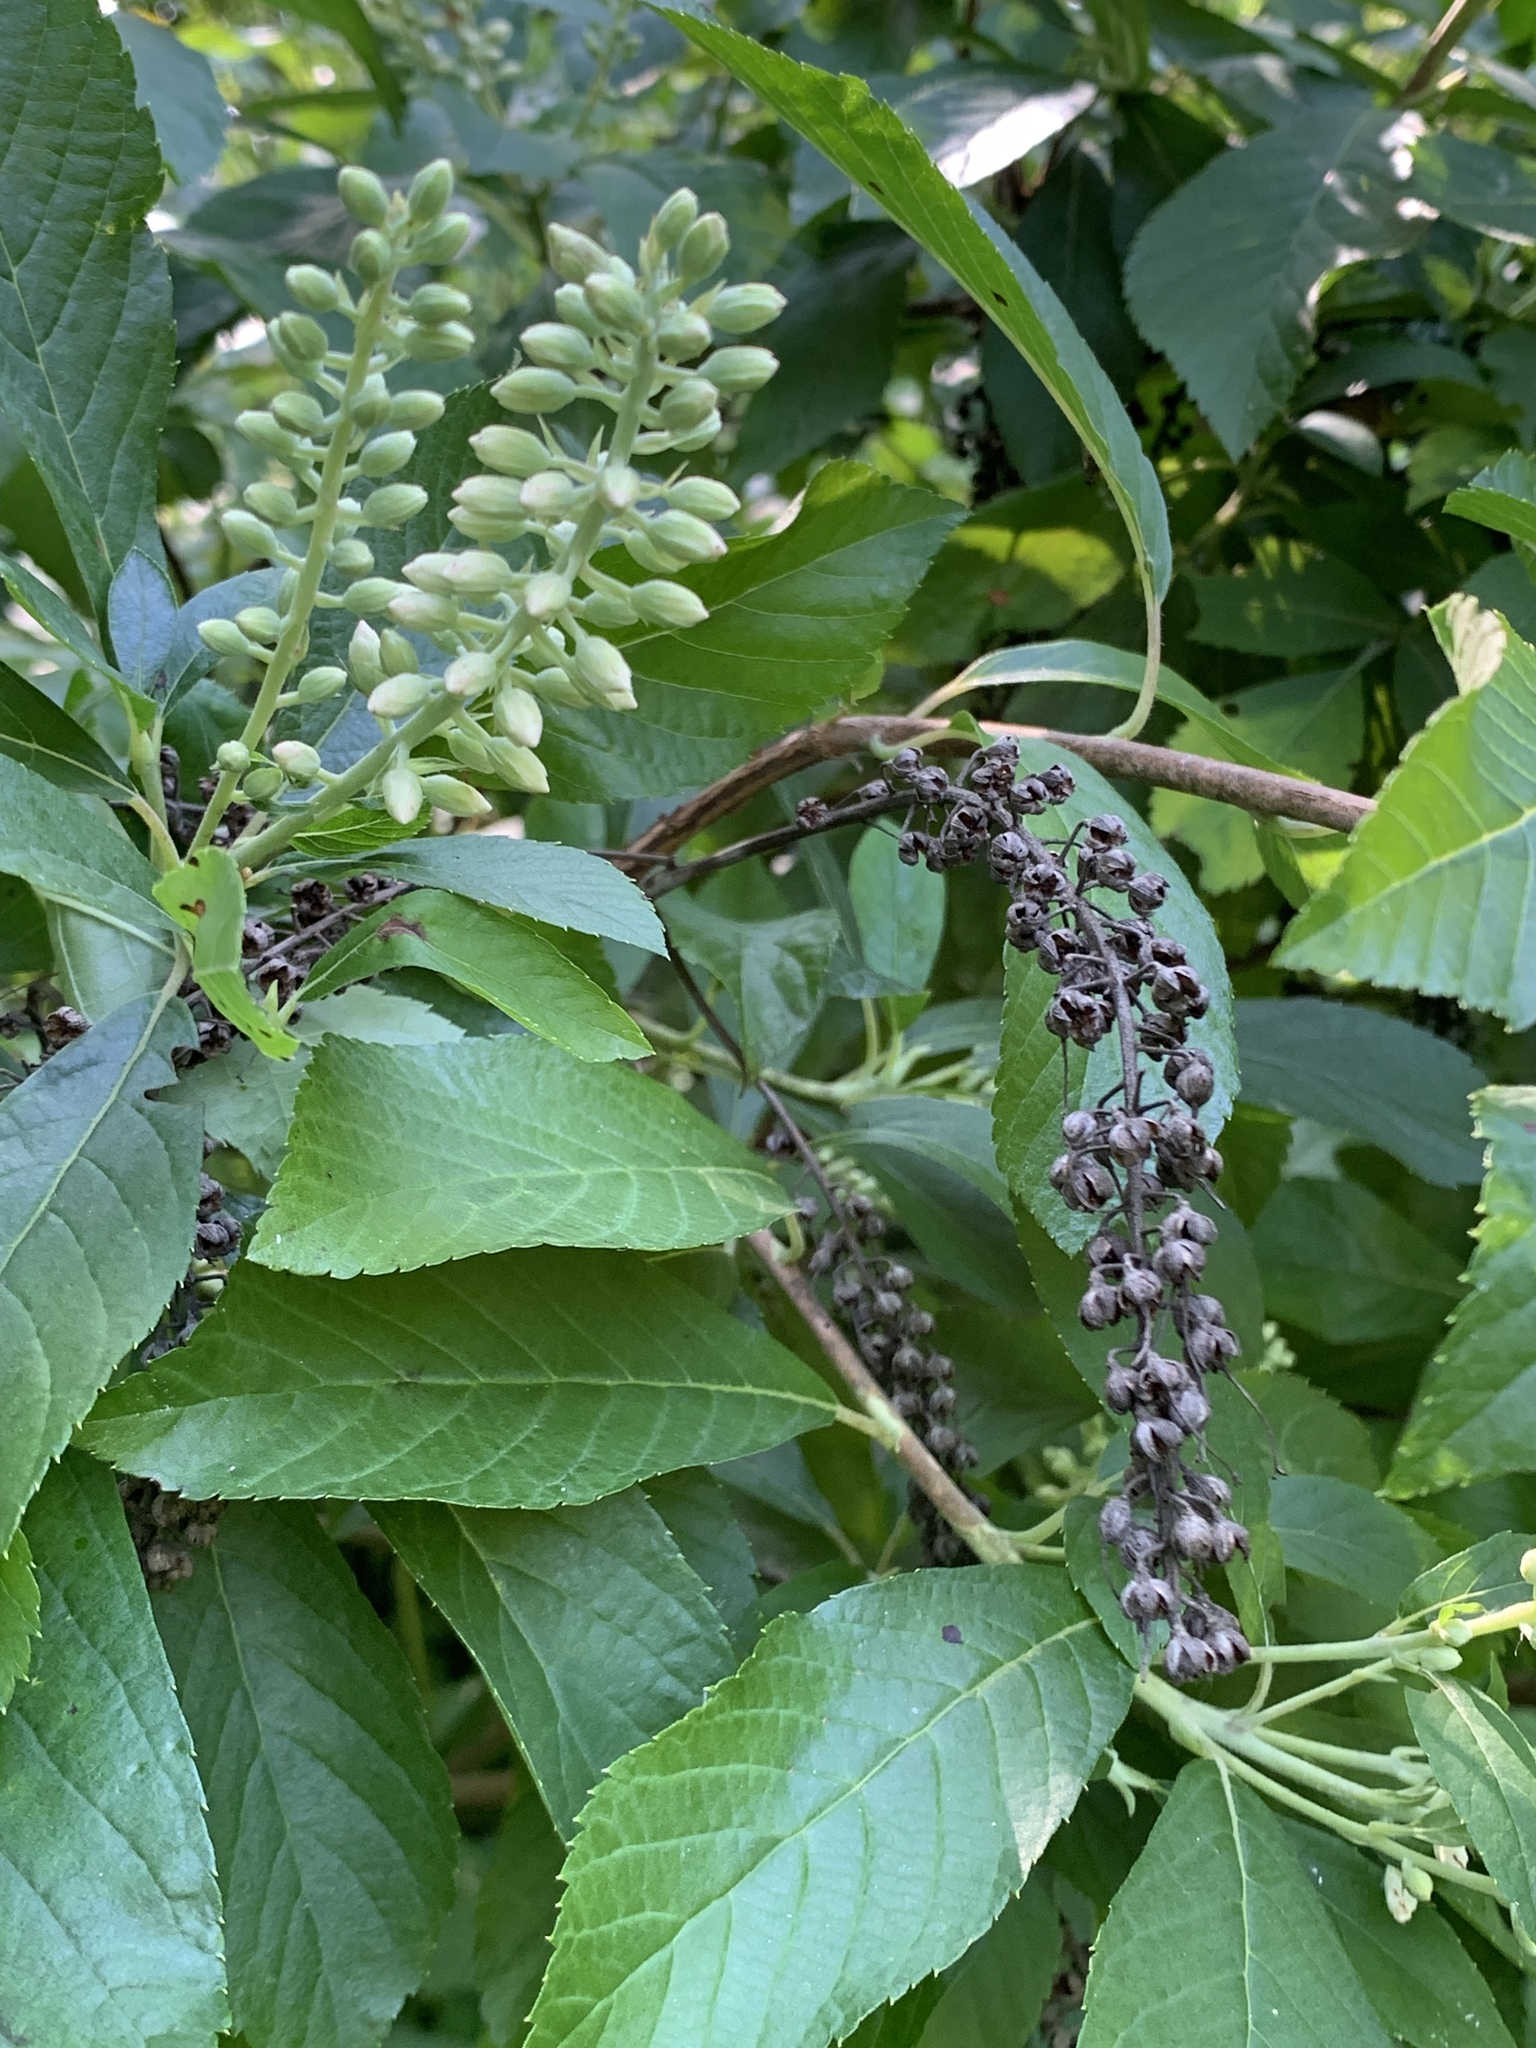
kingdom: Plantae
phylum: Tracheophyta
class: Magnoliopsida
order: Ericales
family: Clethraceae
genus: Clethra
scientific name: Clethra alnifolia
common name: Sweet pepperbush
